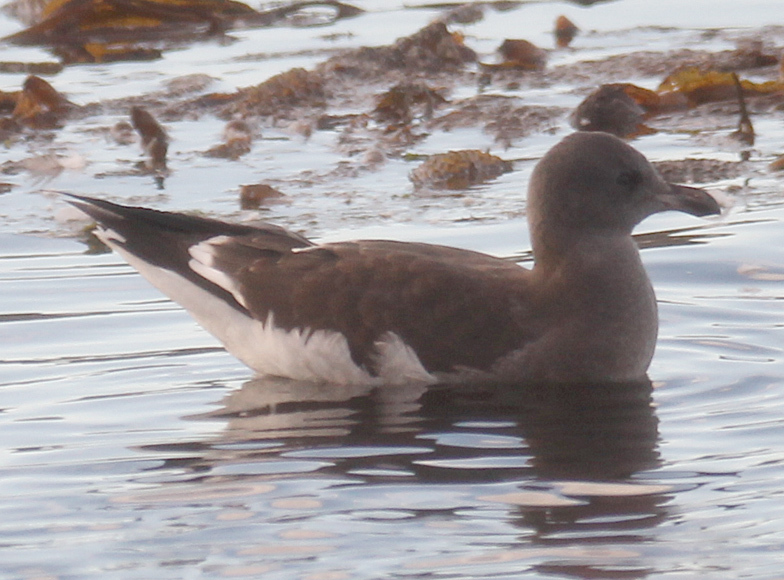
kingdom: Animalia
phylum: Chordata
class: Aves
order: Charadriiformes
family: Laridae
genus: Leucophaeus
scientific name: Leucophaeus scoresbii
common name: Dolphin gull
